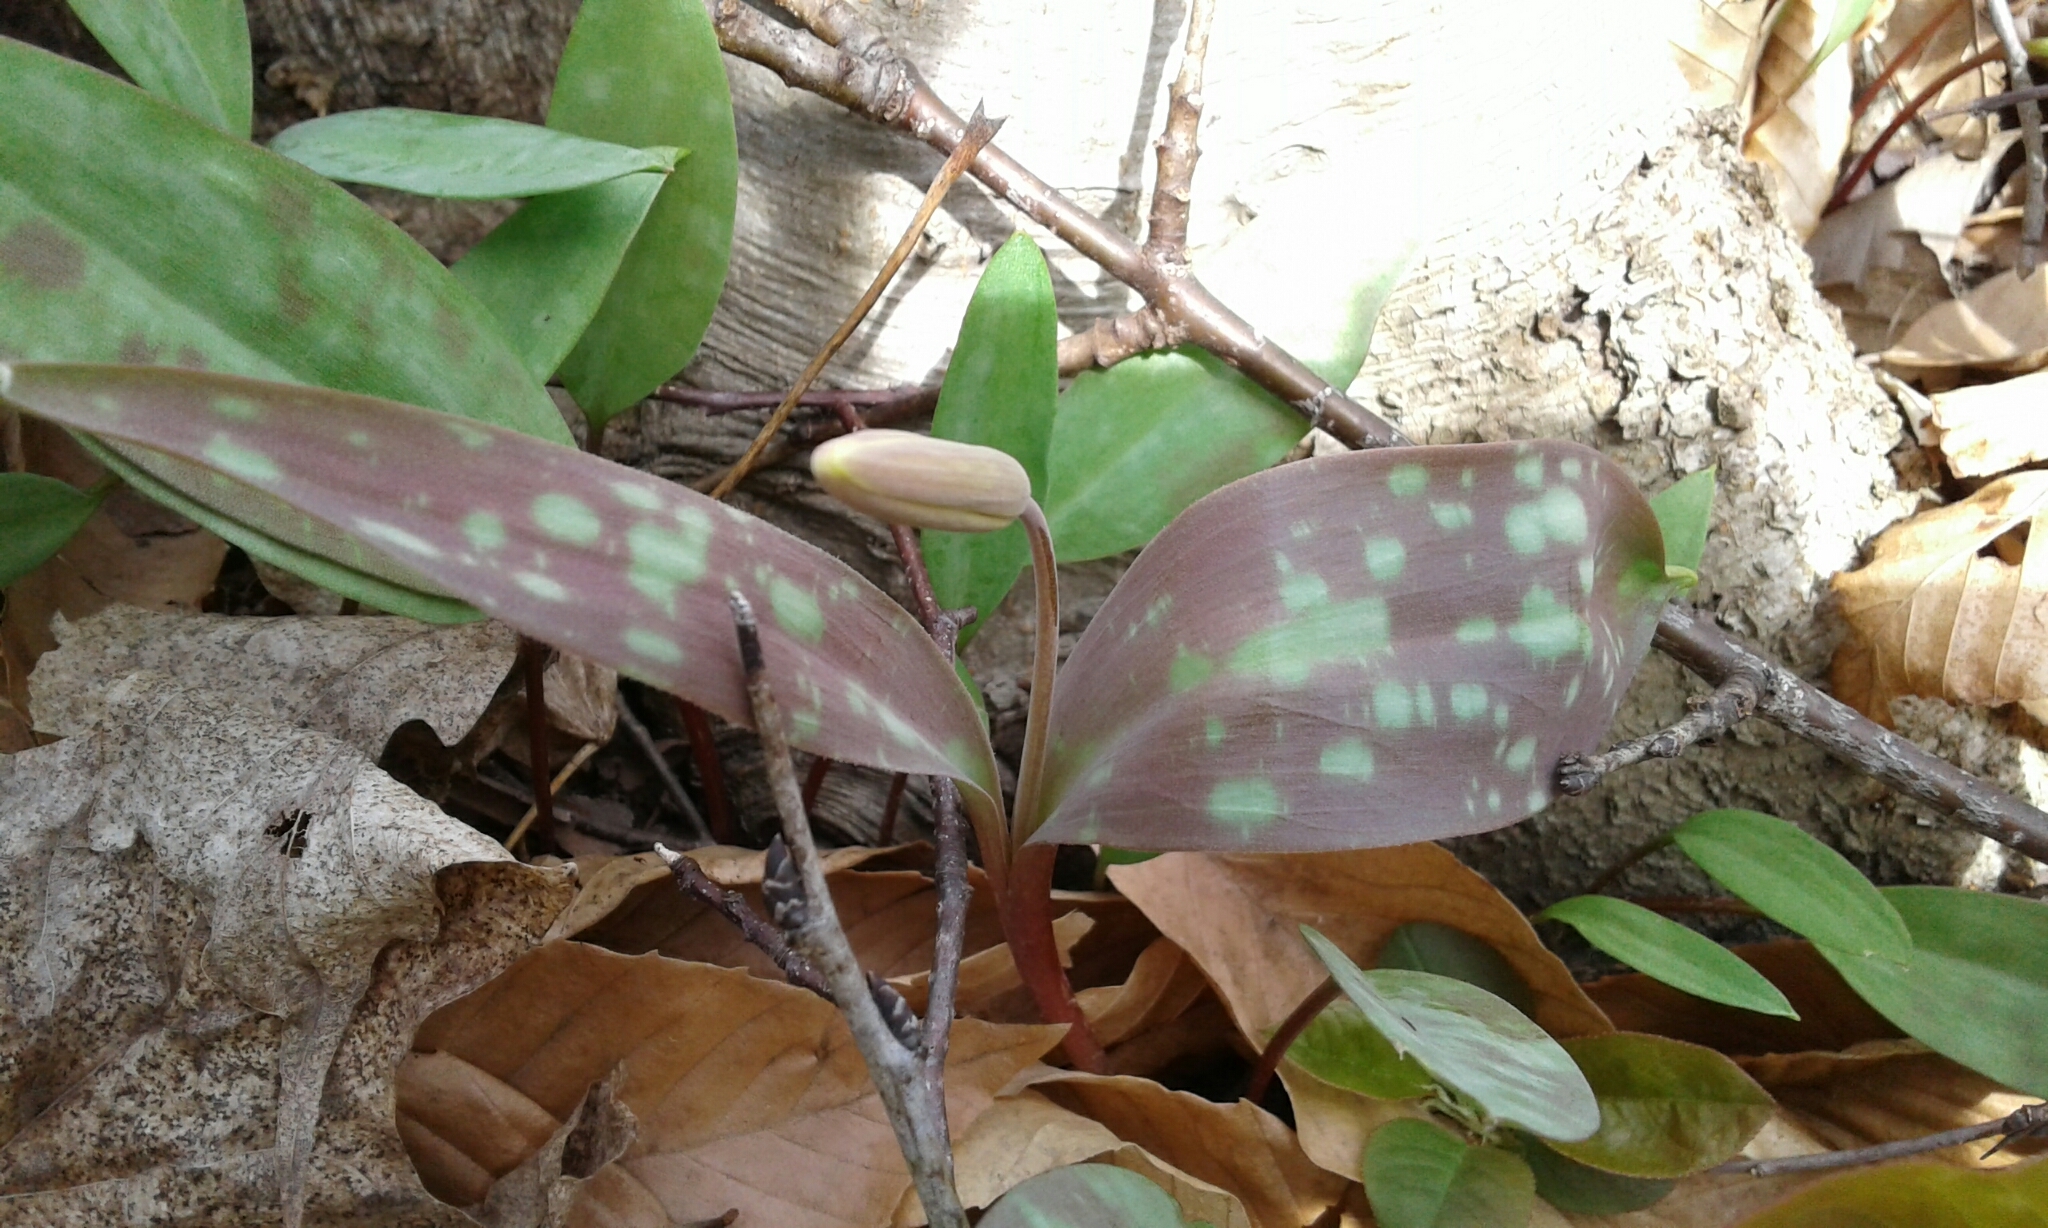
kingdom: Plantae
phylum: Tracheophyta
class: Liliopsida
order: Liliales
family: Liliaceae
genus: Erythronium
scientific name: Erythronium americanum
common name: Yellow adder's-tongue
